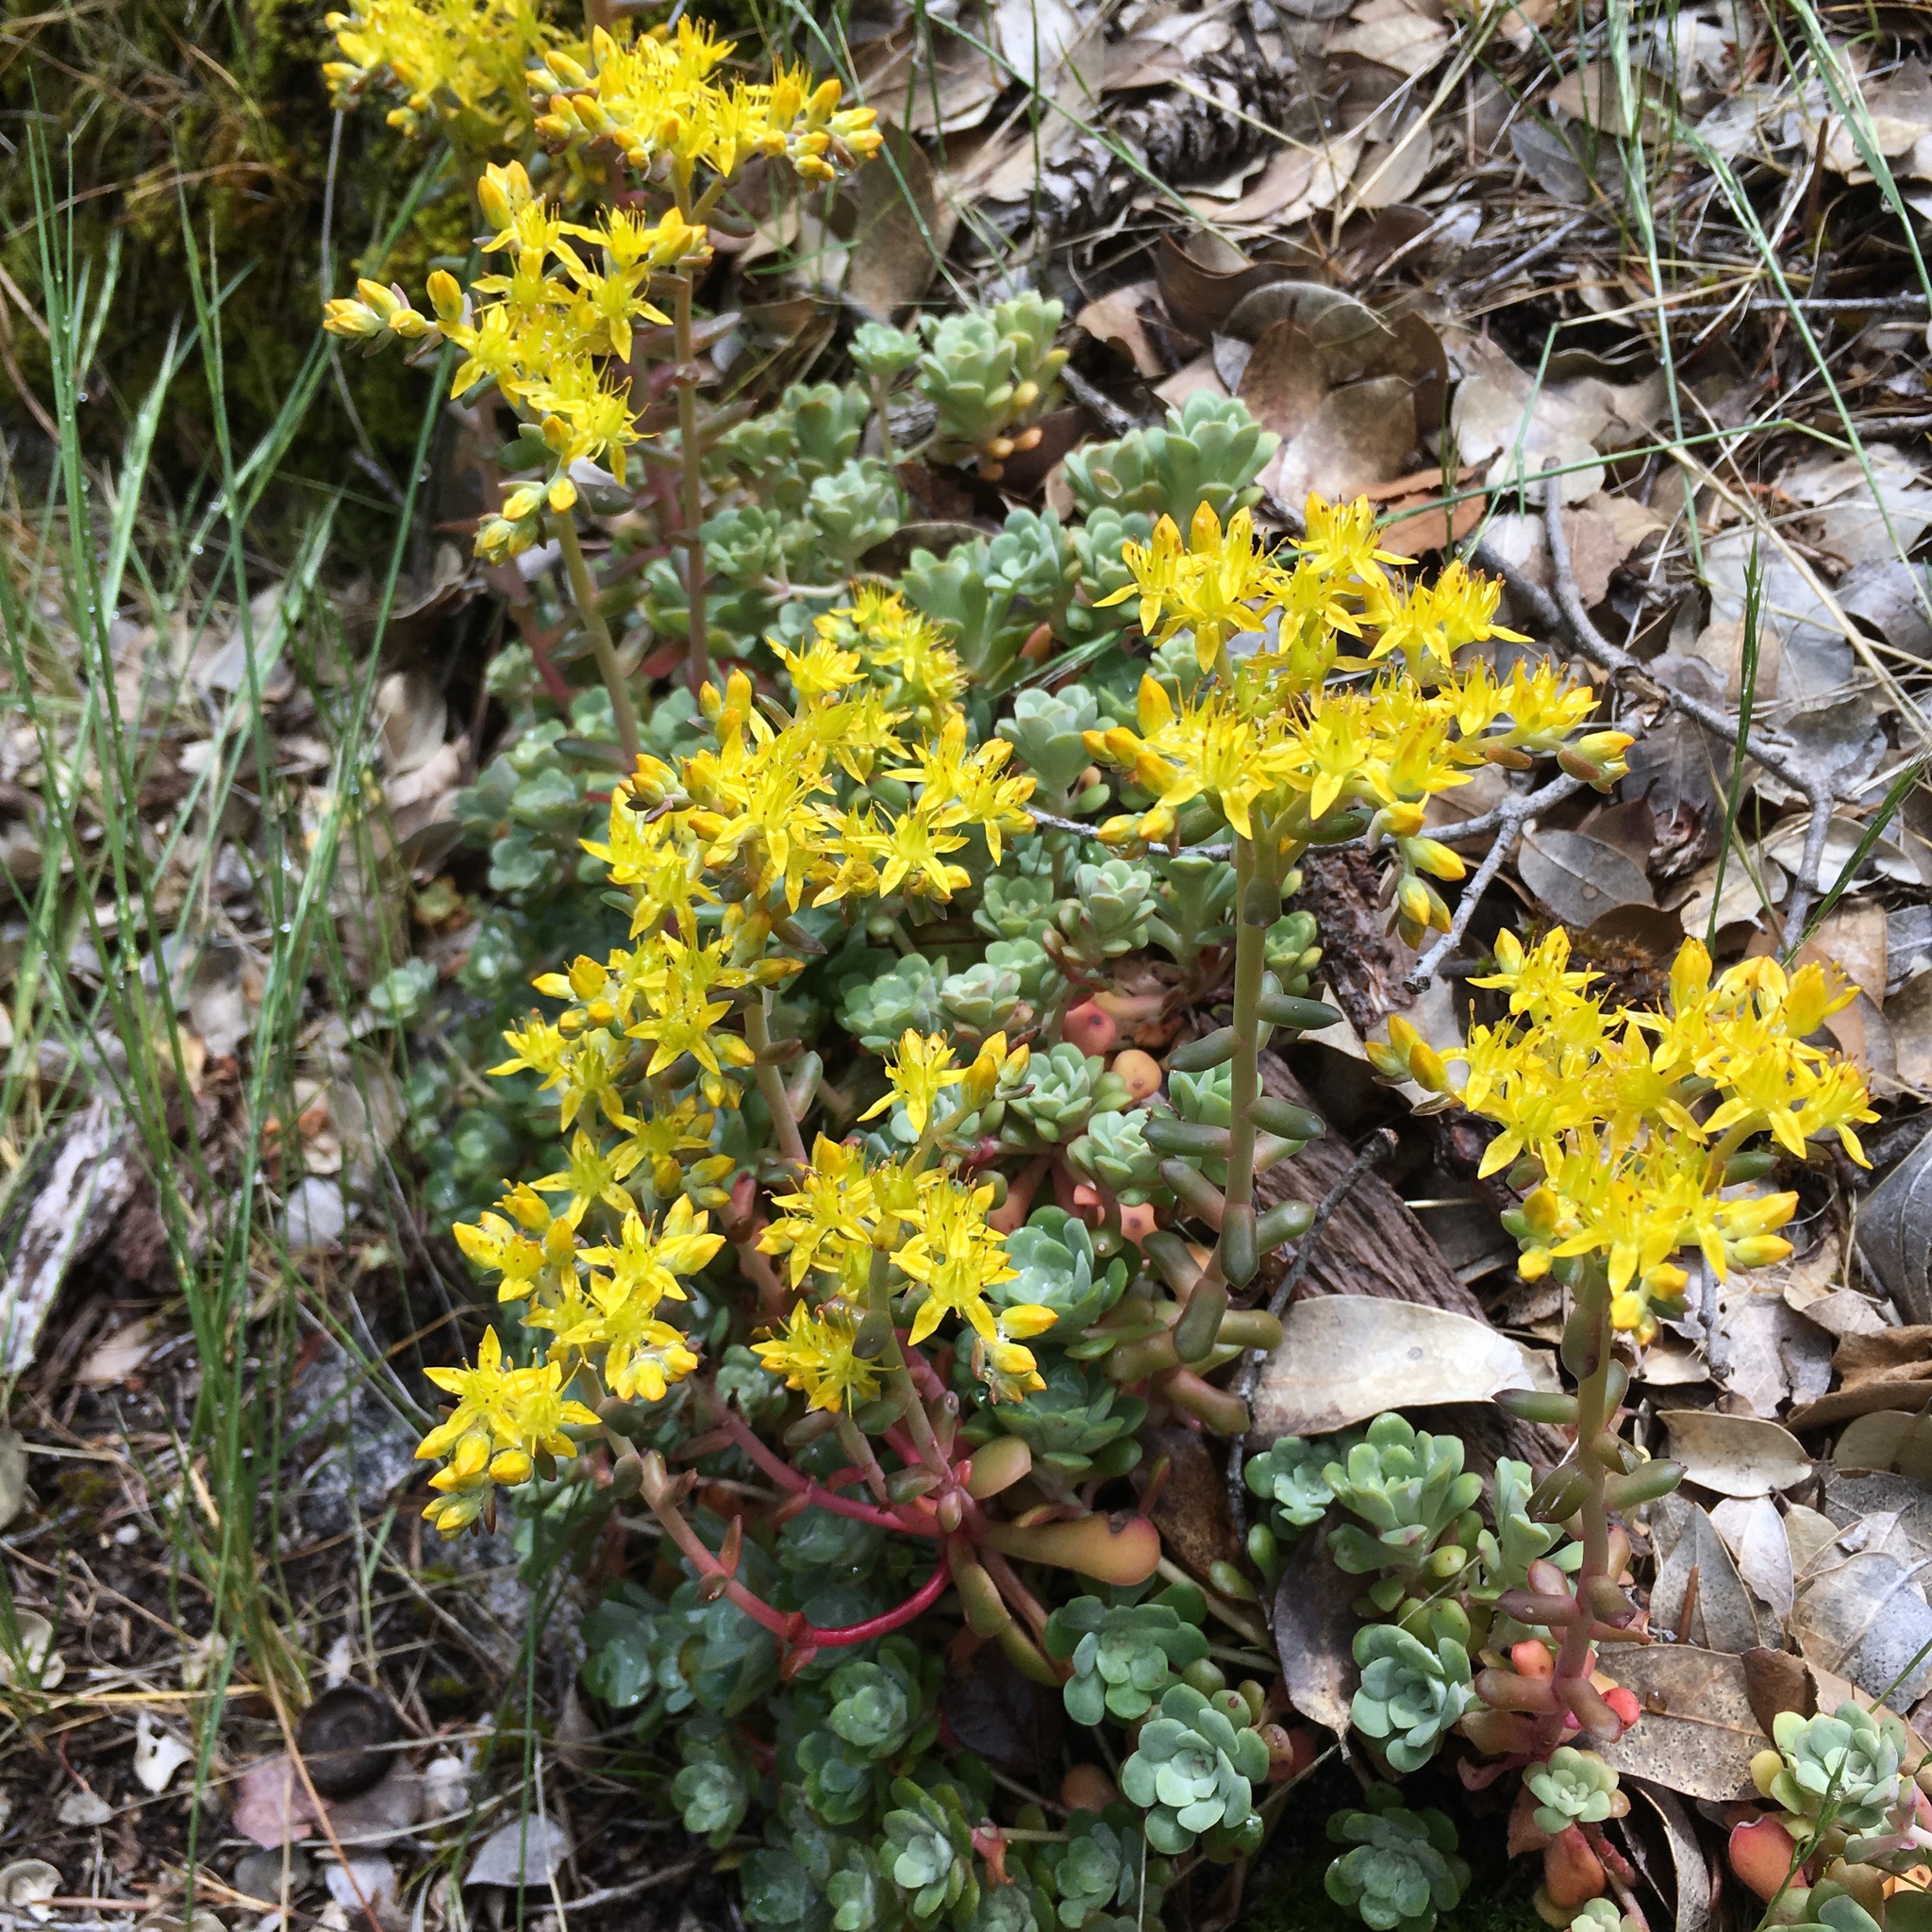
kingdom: Plantae
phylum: Tracheophyta
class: Magnoliopsida
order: Saxifragales
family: Crassulaceae
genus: Sedum
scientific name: Sedum spathulifolium
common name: Colorado stonecrop
